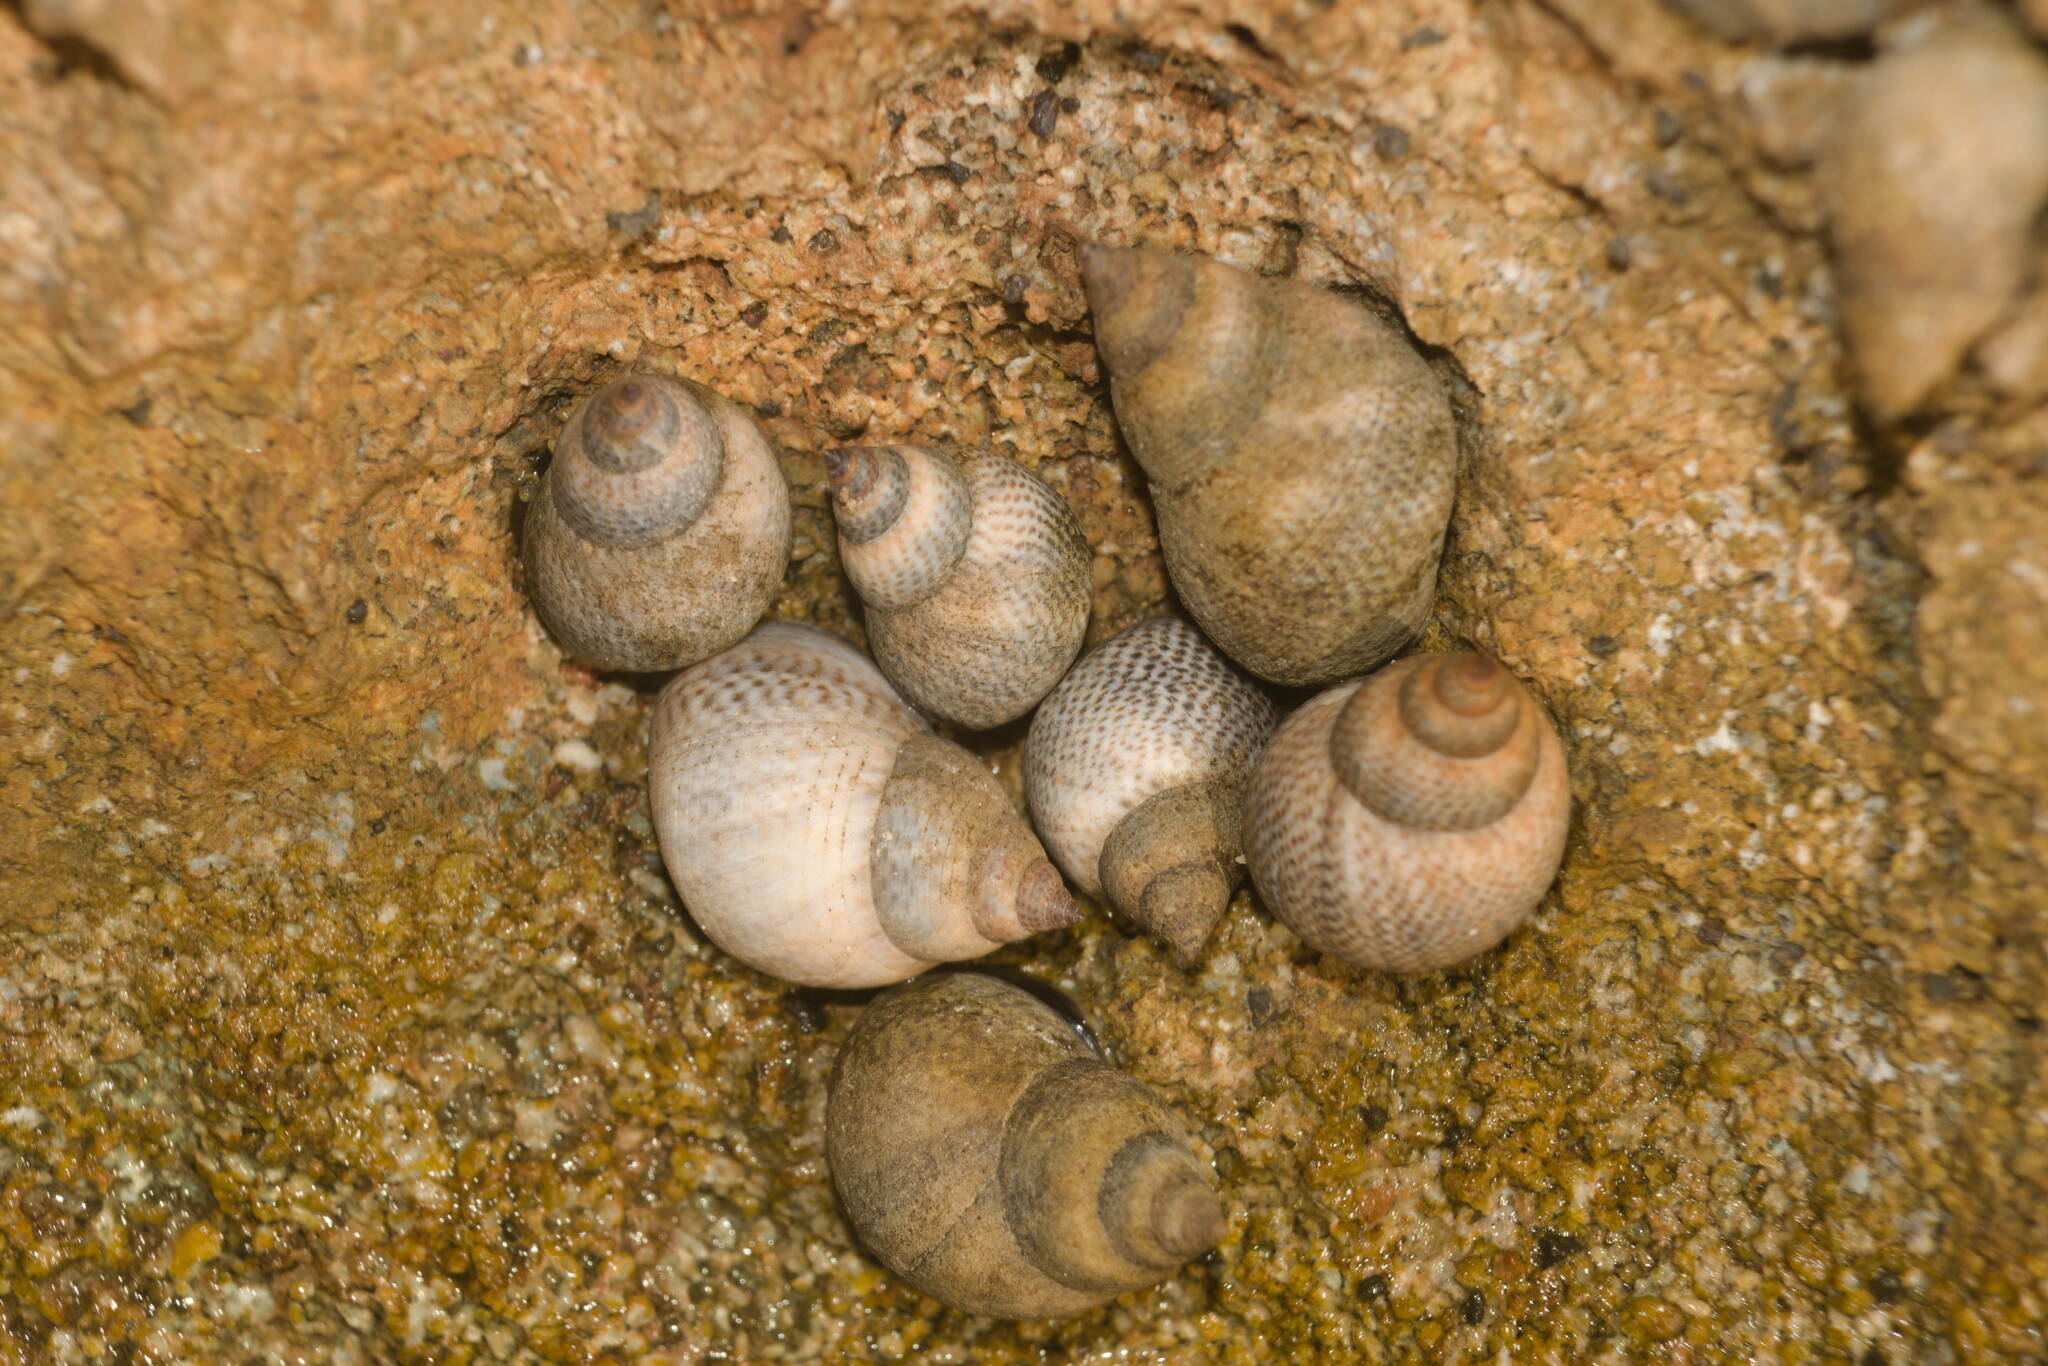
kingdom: Animalia
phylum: Mollusca
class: Gastropoda
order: Littorinimorpha
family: Littorinidae
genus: Littoraria
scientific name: Littoraria pintado
